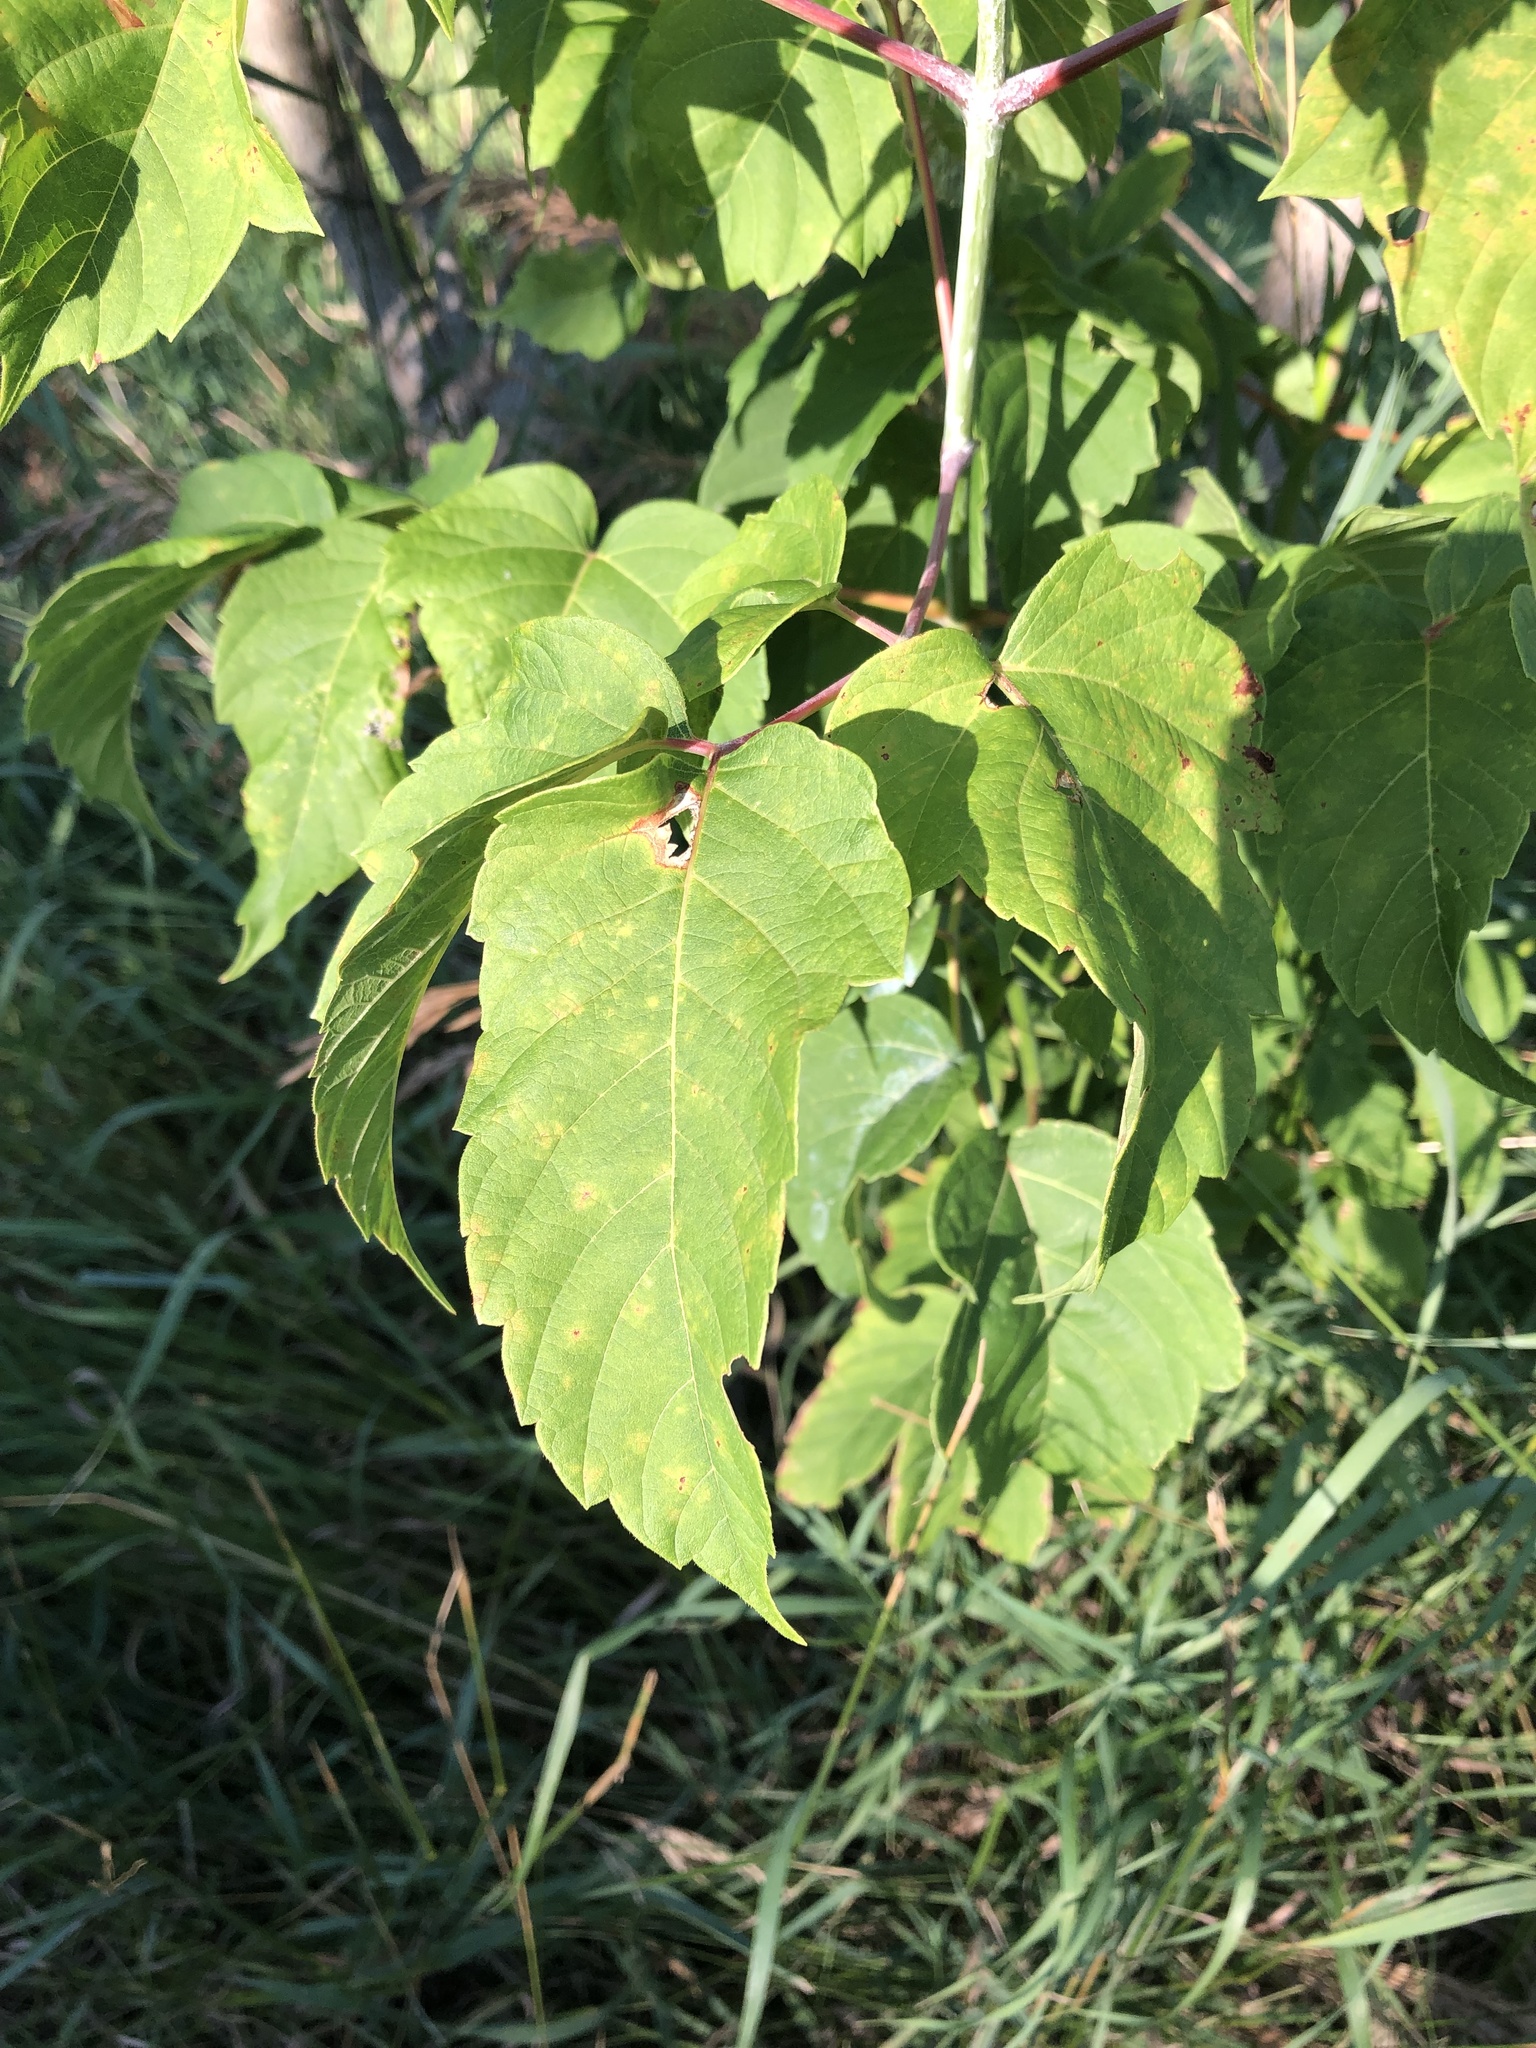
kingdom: Plantae
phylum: Tracheophyta
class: Magnoliopsida
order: Sapindales
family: Sapindaceae
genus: Acer
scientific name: Acer negundo
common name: Ashleaf maple
